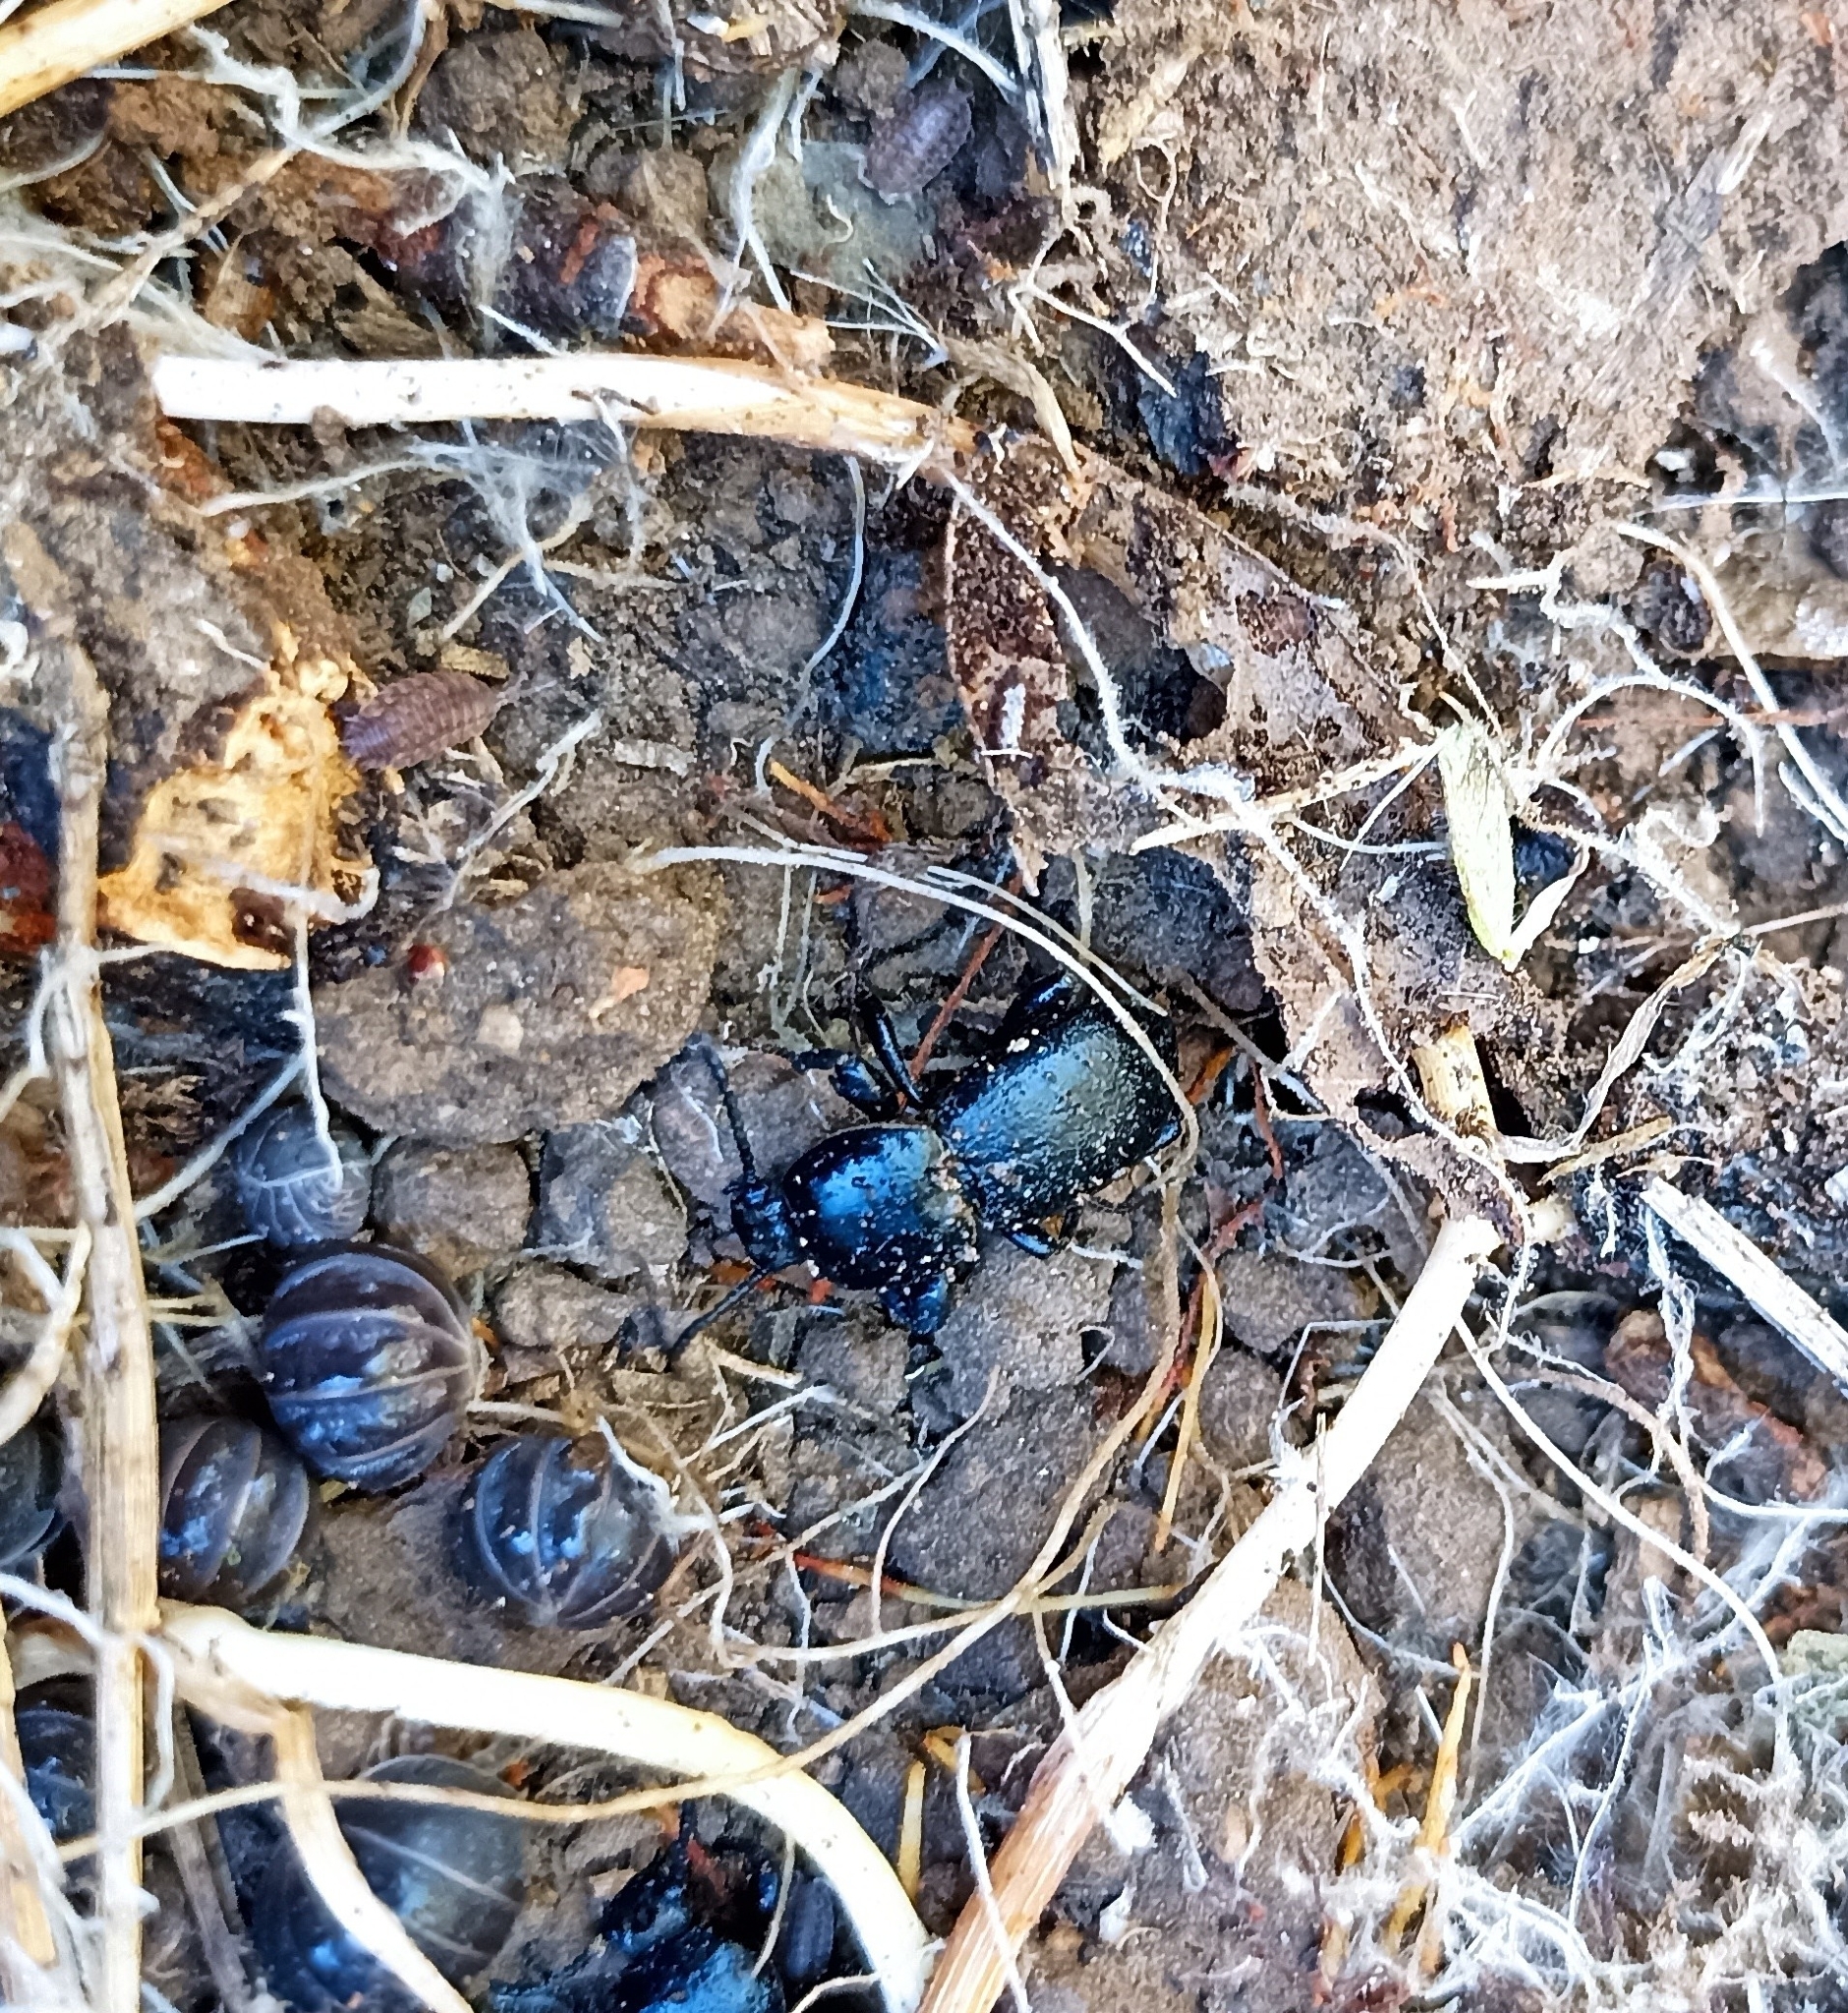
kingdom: Animalia
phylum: Arthropoda
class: Insecta
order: Coleoptera
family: Tenebrionidae
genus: Scaurus
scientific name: Scaurus atratus
